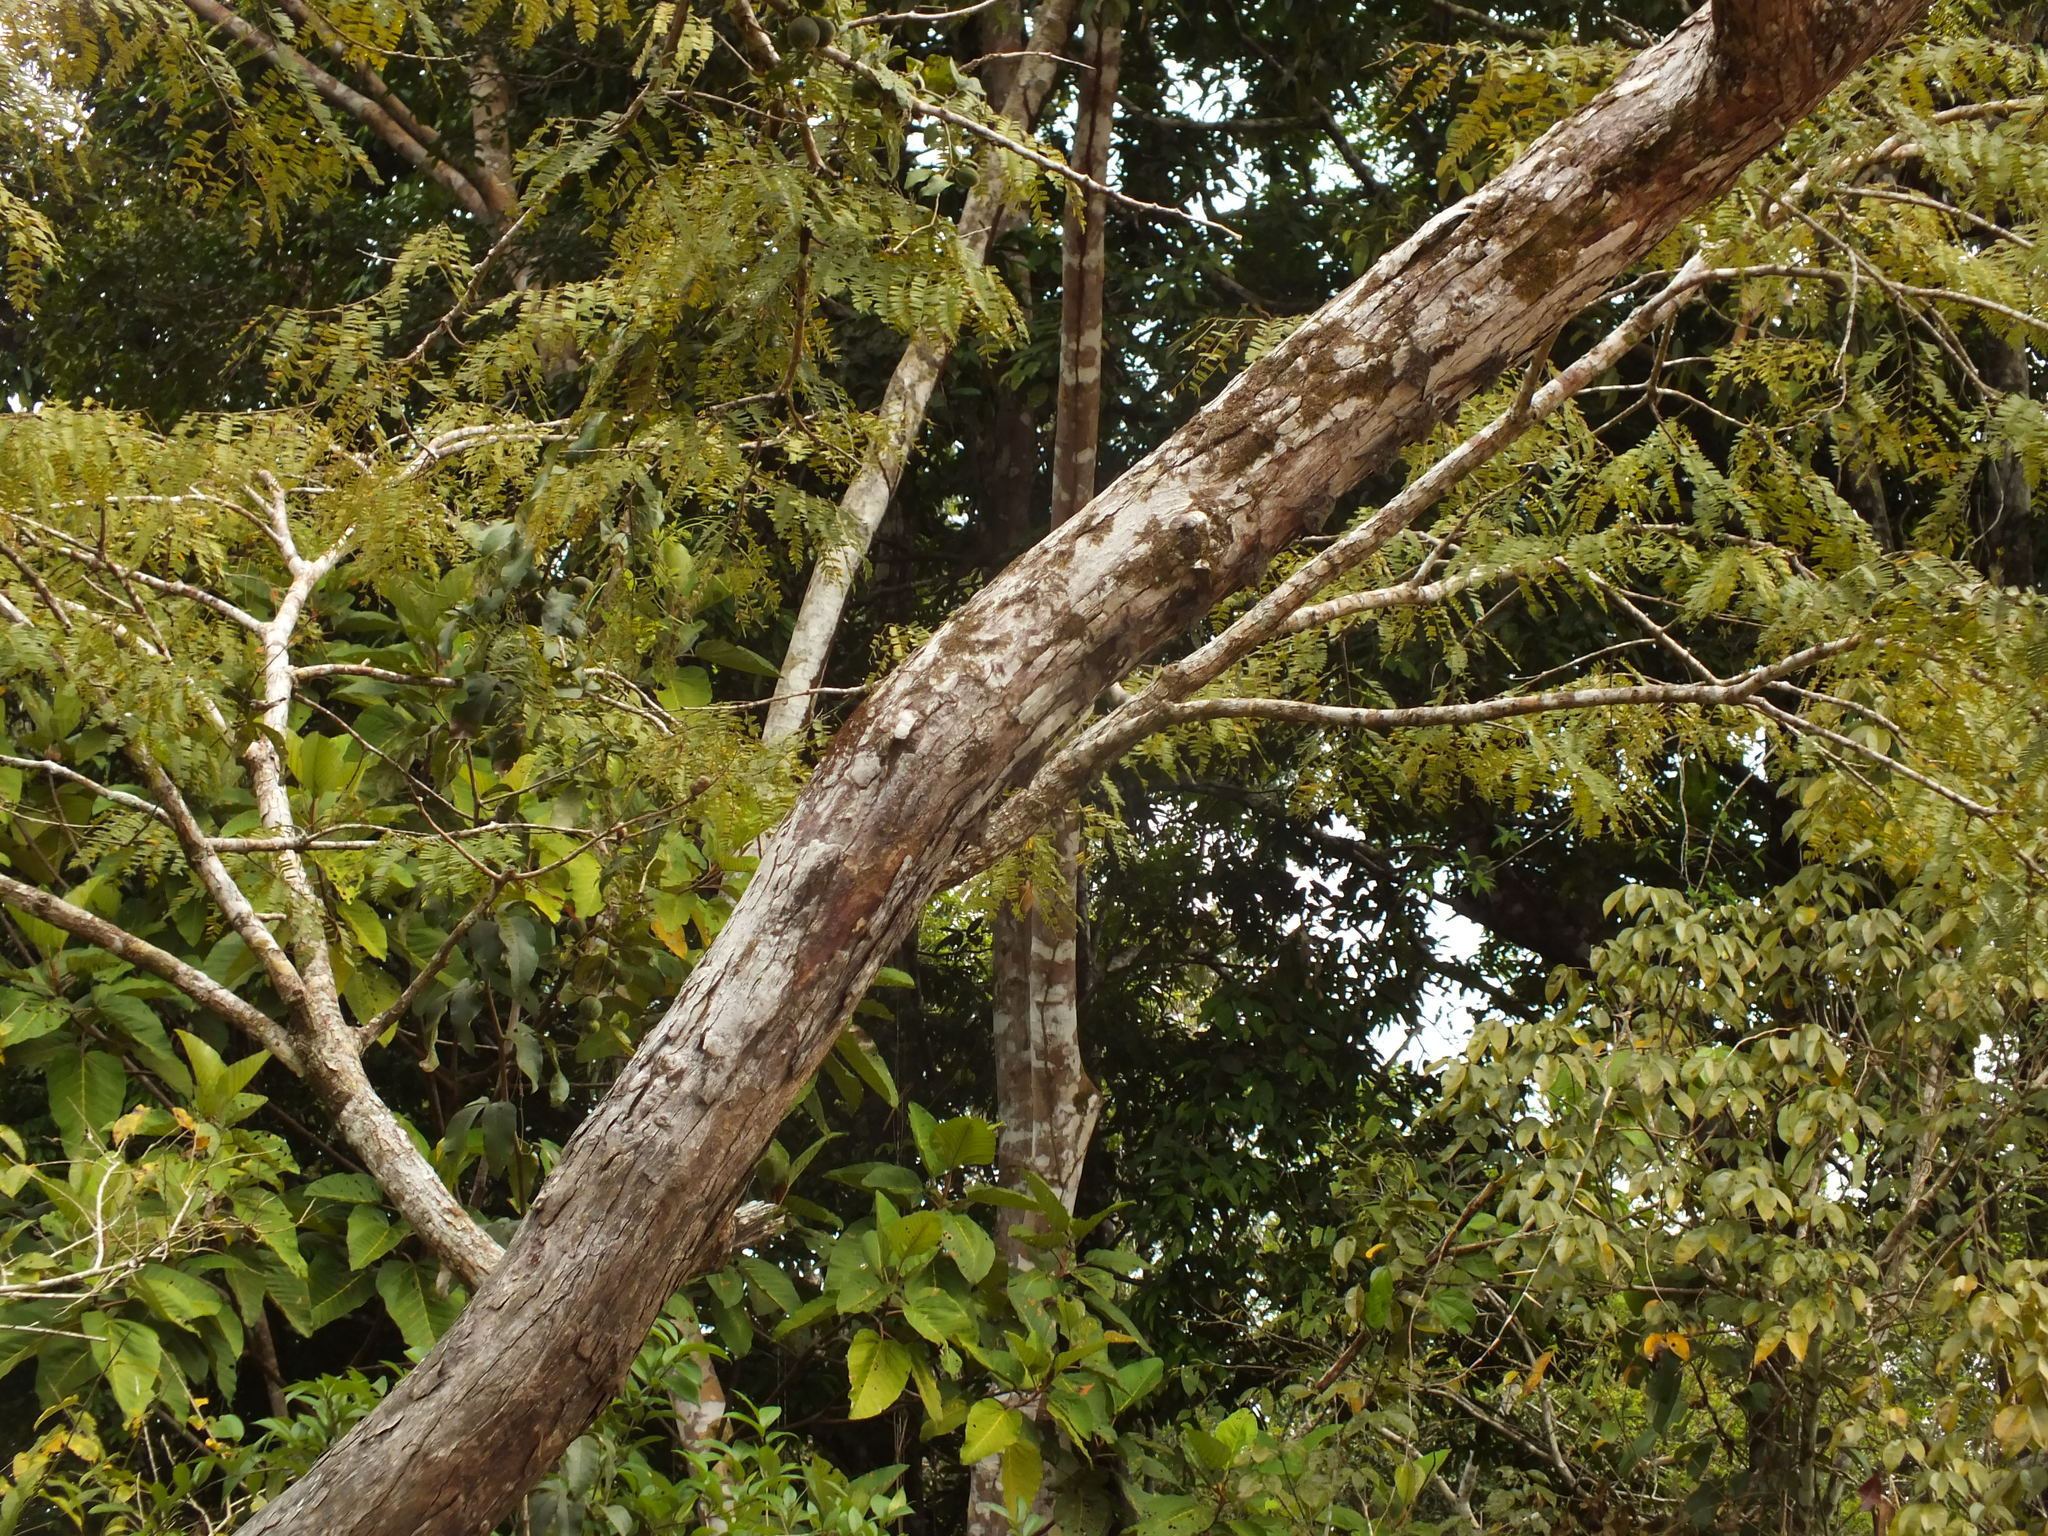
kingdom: Animalia
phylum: Chordata
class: Mammalia
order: Chiroptera
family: Emballonuridae
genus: Rhynchonycteris
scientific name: Rhynchonycteris naso
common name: Proboscis bat
